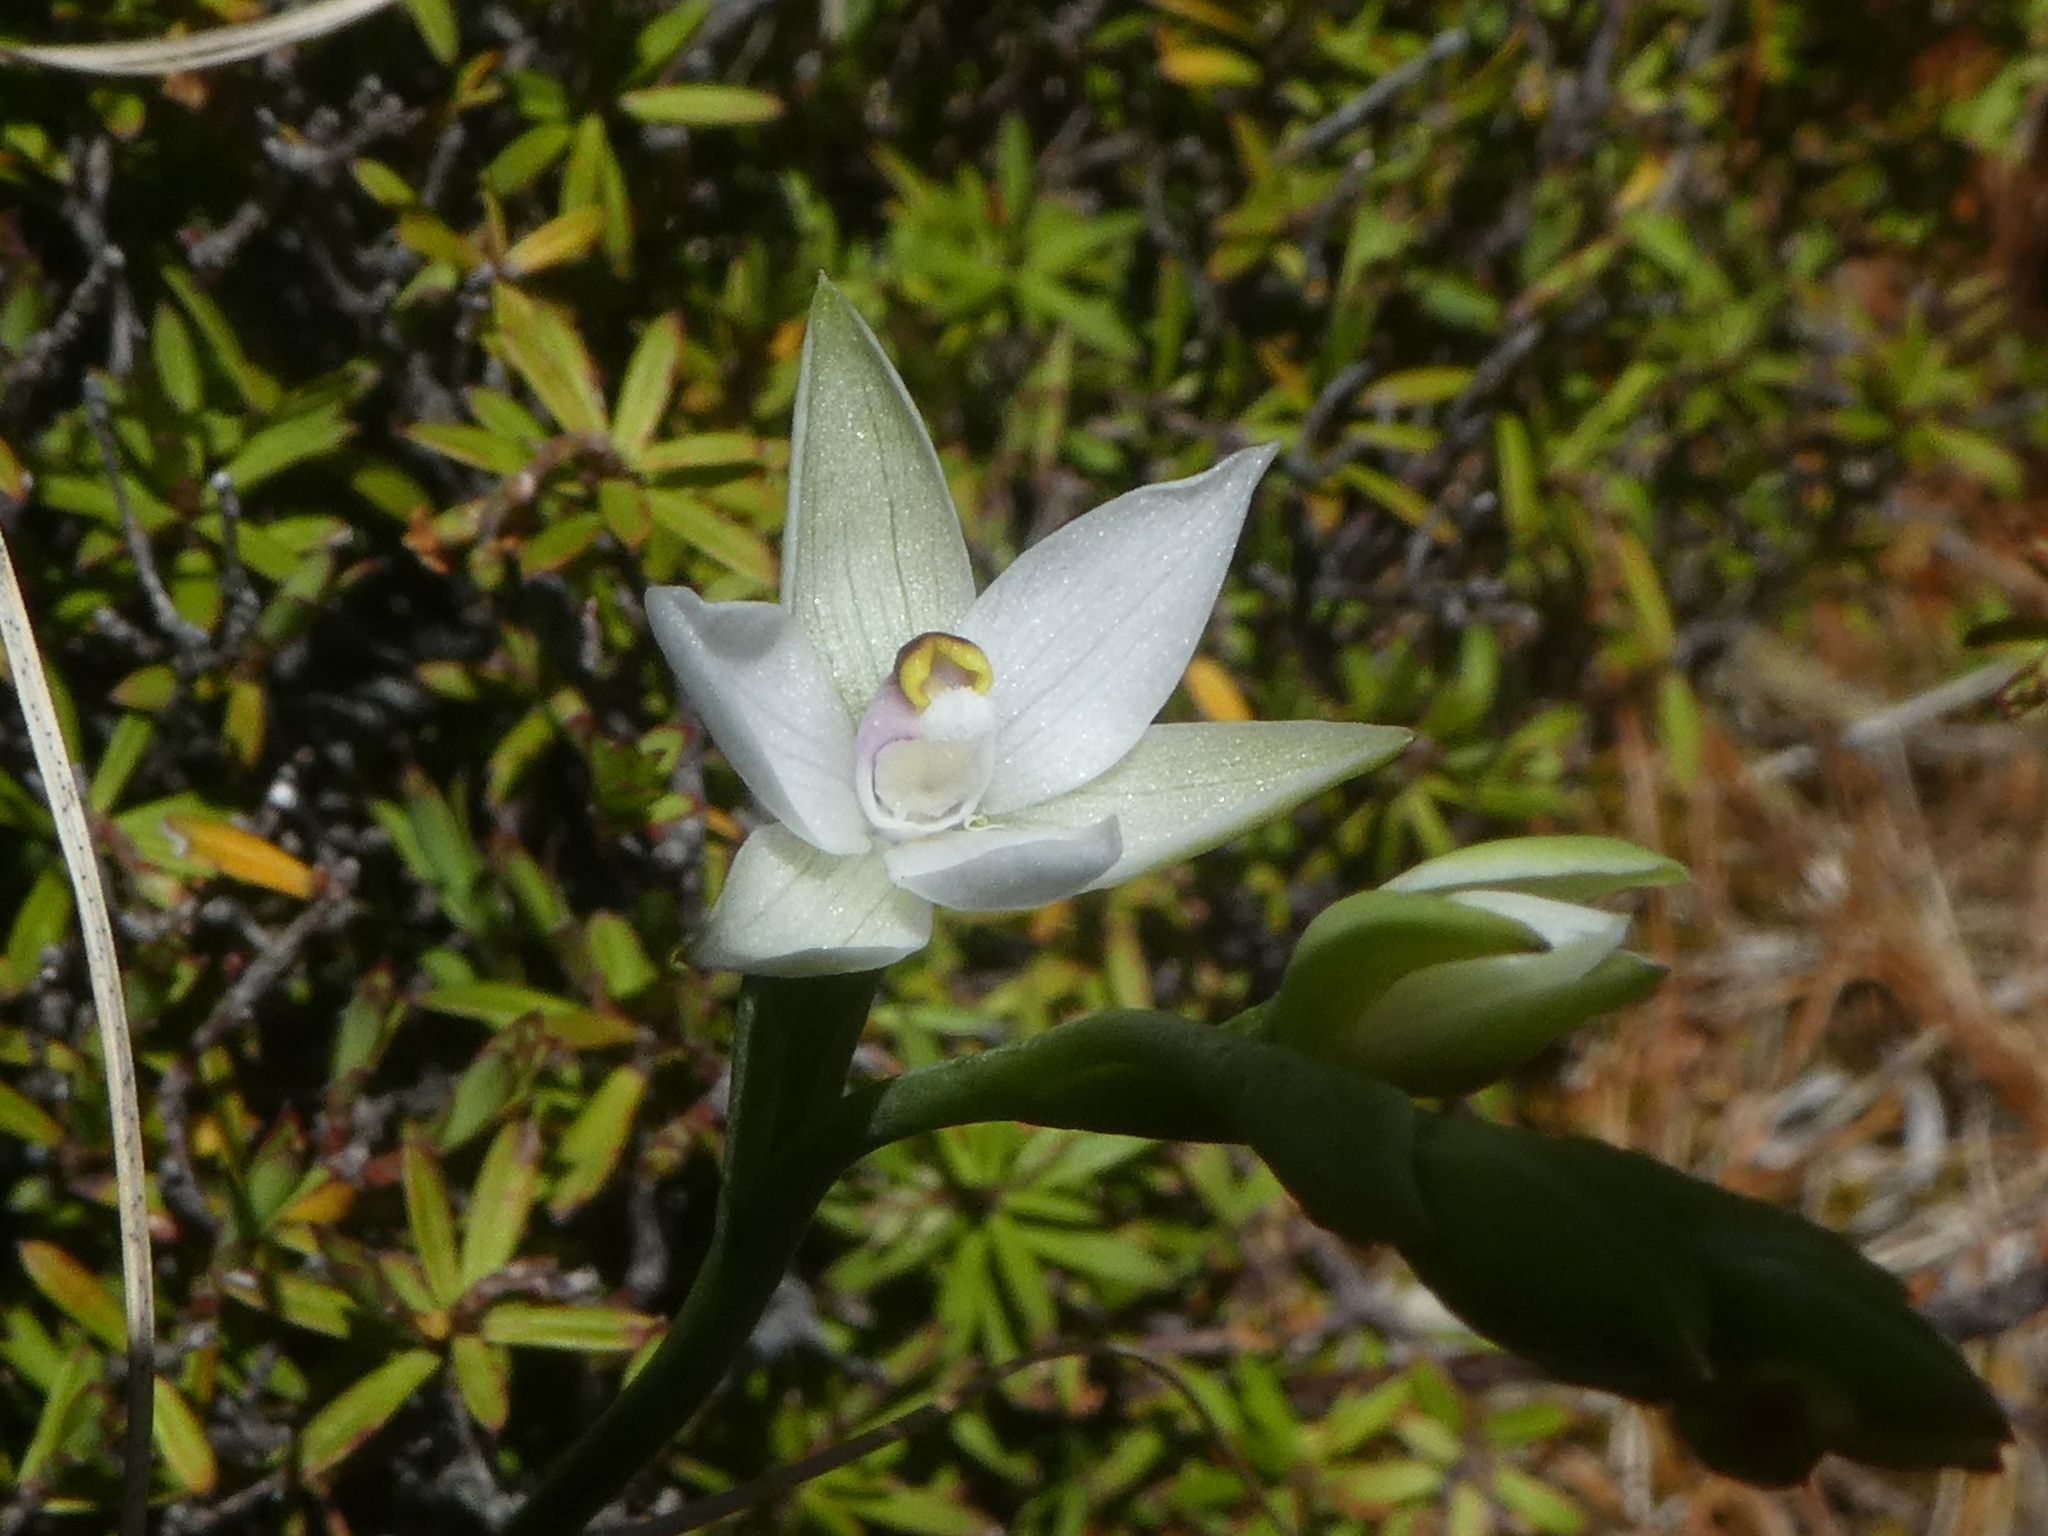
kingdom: Plantae
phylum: Tracheophyta
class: Liliopsida
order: Asparagales
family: Orchidaceae
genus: Thelymitra
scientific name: Thelymitra longifolia
